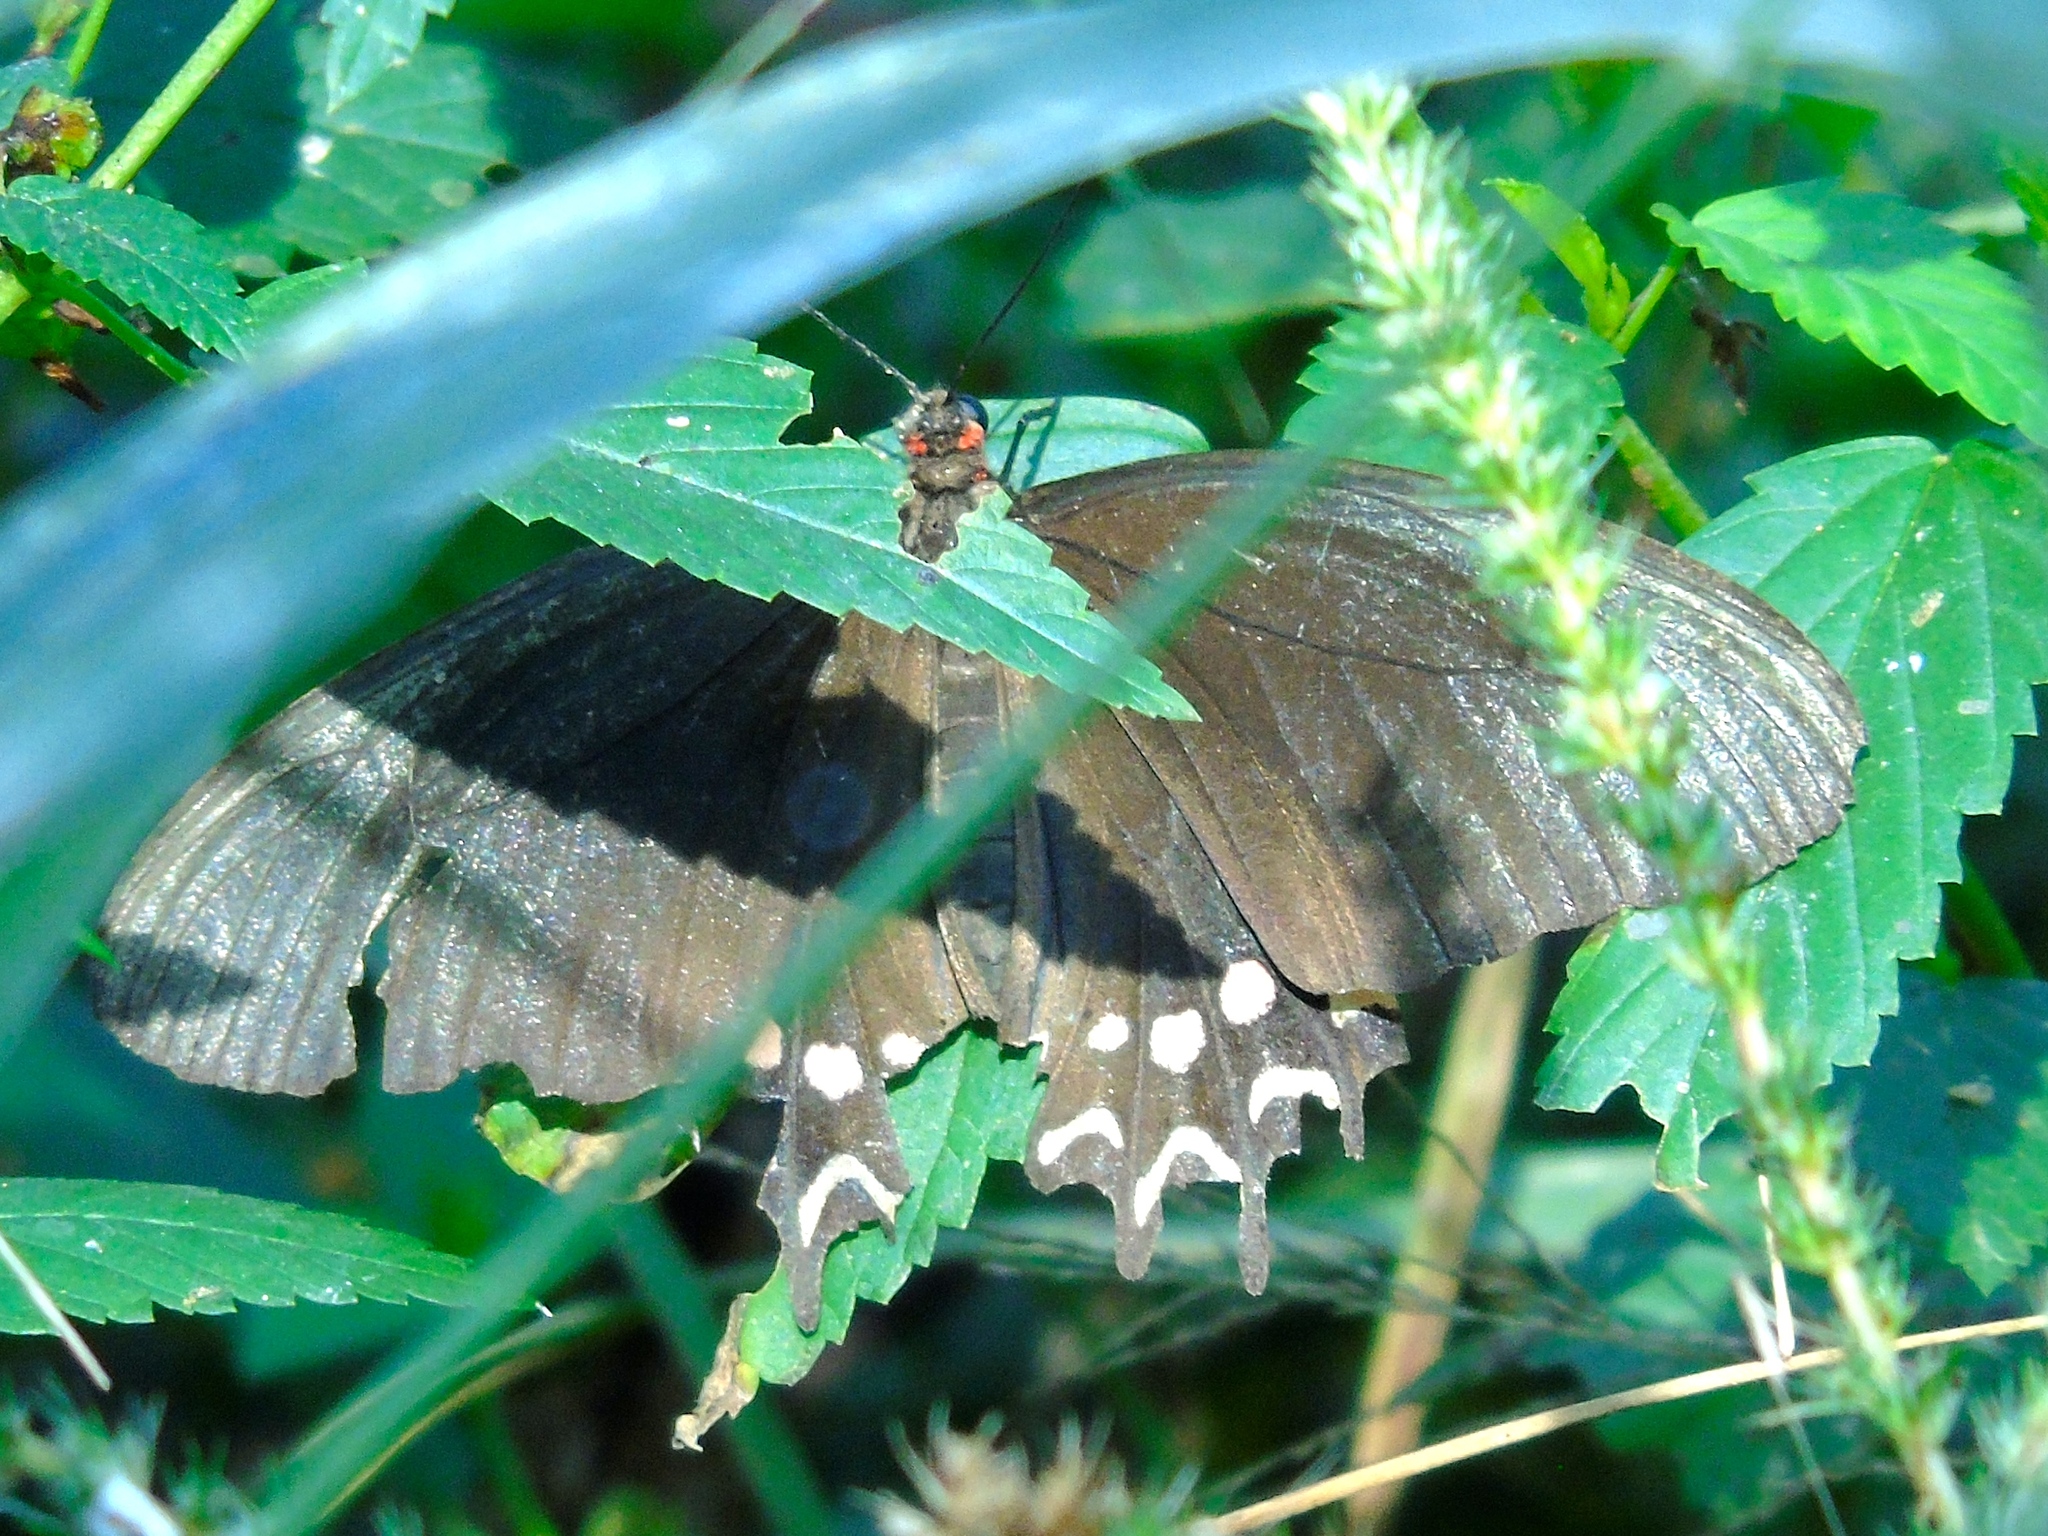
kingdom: Animalia
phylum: Arthropoda
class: Insecta
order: Lepidoptera
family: Papilionidae
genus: Parides
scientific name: Parides photinus
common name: Pink-spotted cattleheart
